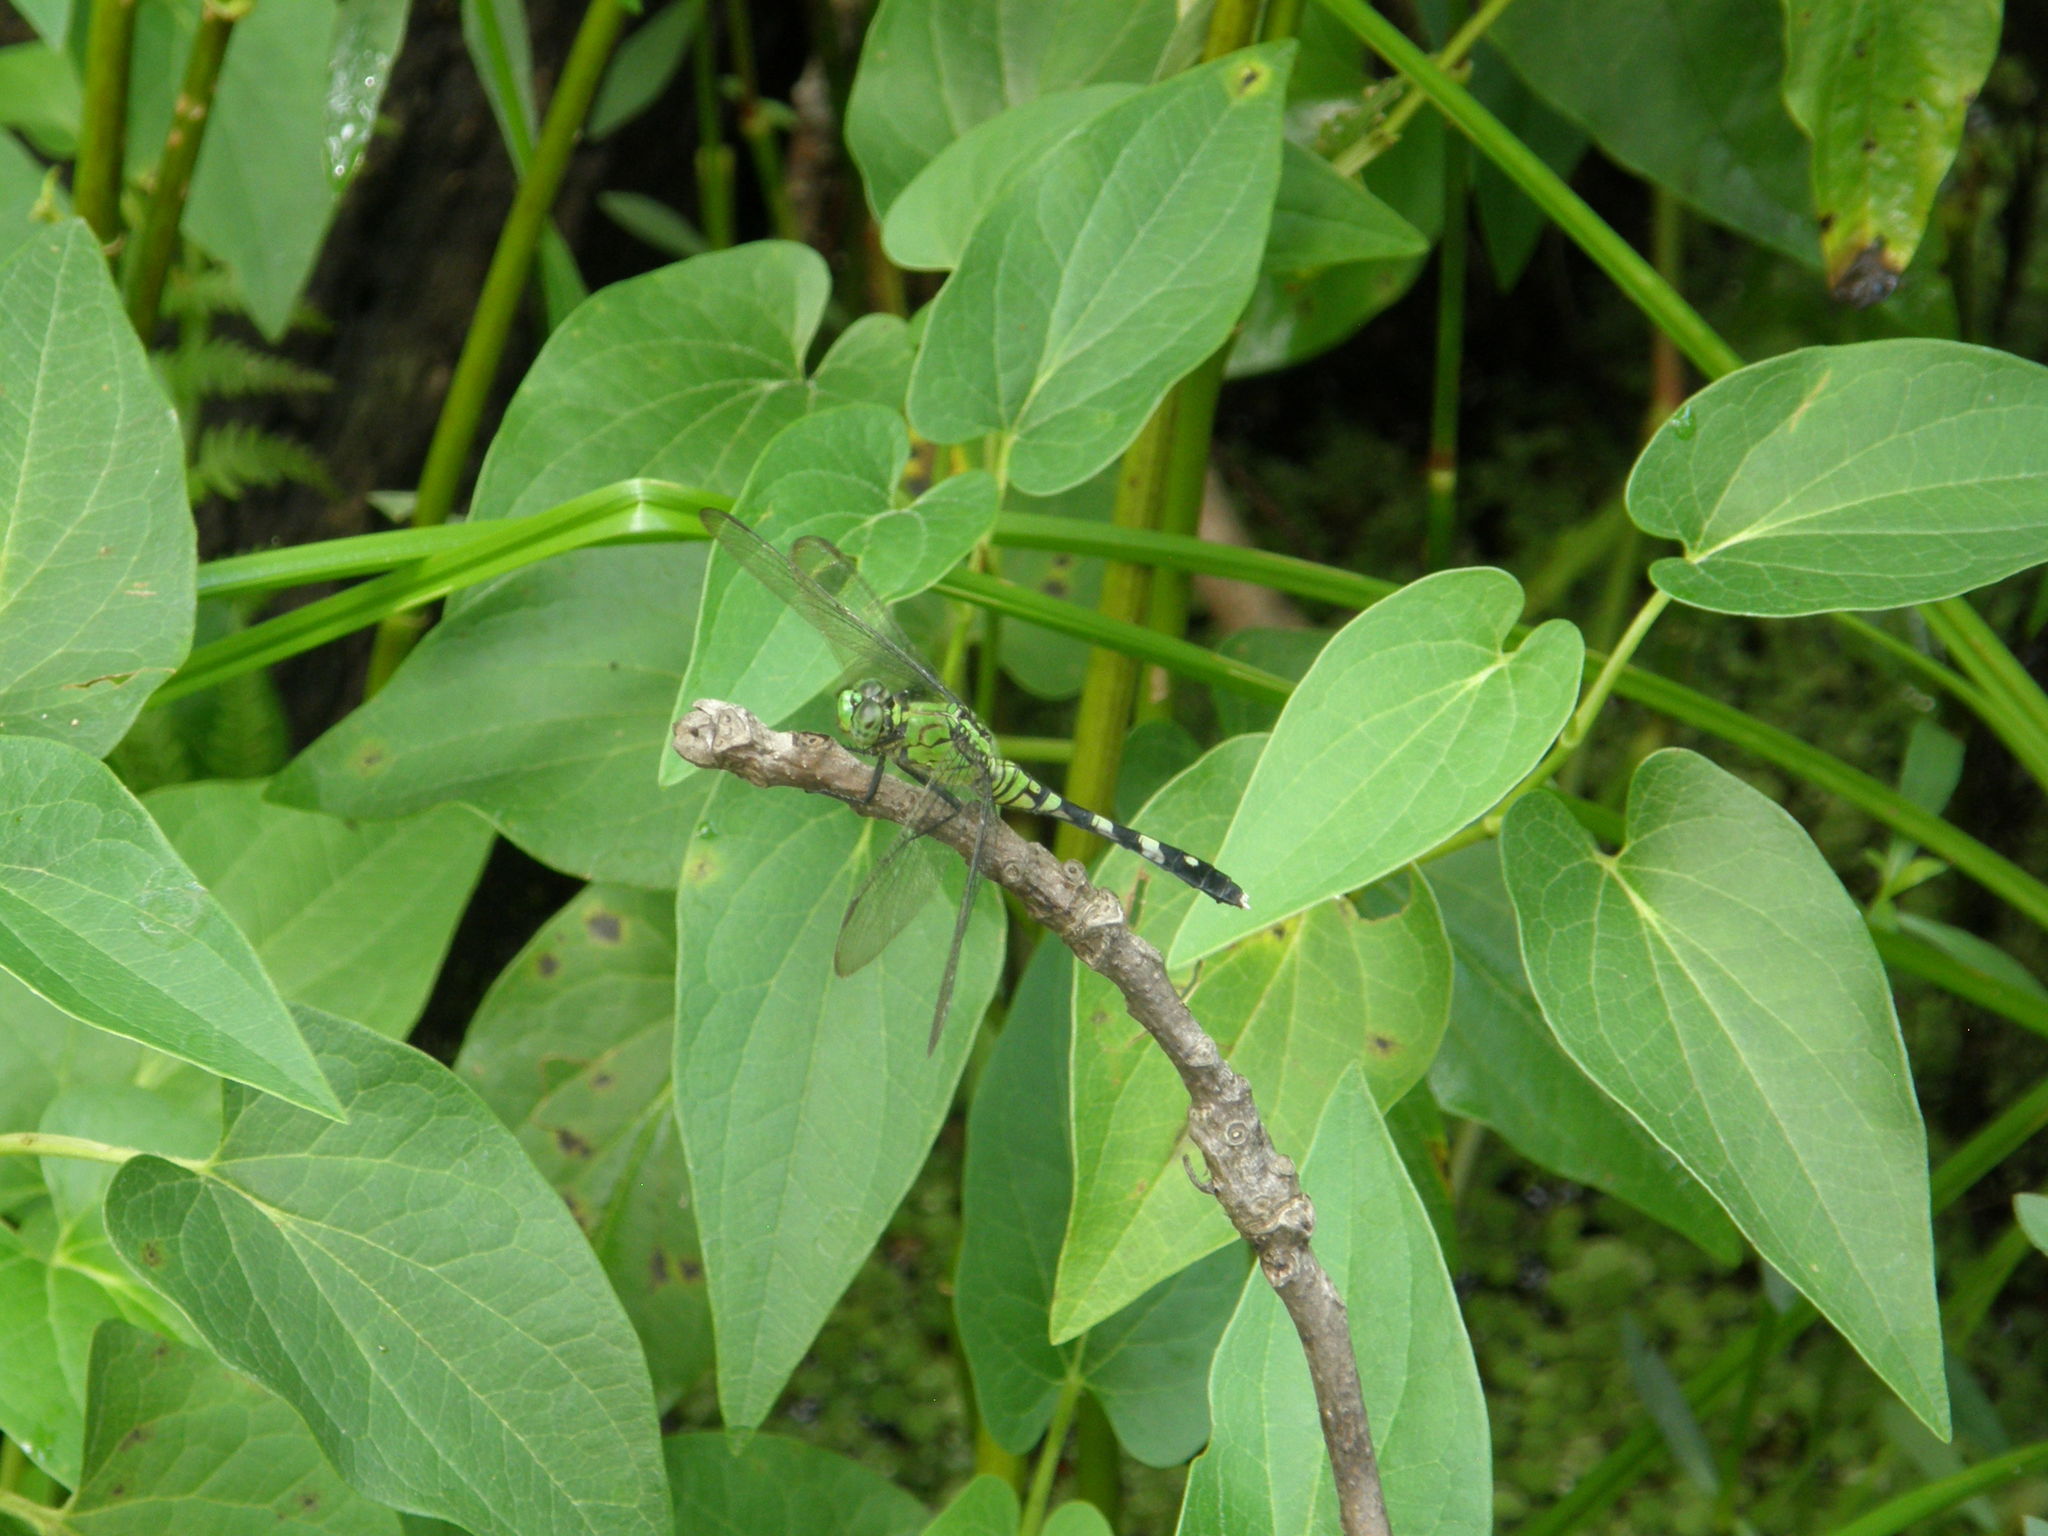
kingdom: Animalia
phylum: Arthropoda
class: Insecta
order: Odonata
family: Libellulidae
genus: Erythemis
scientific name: Erythemis simplicicollis
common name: Eastern pondhawk
